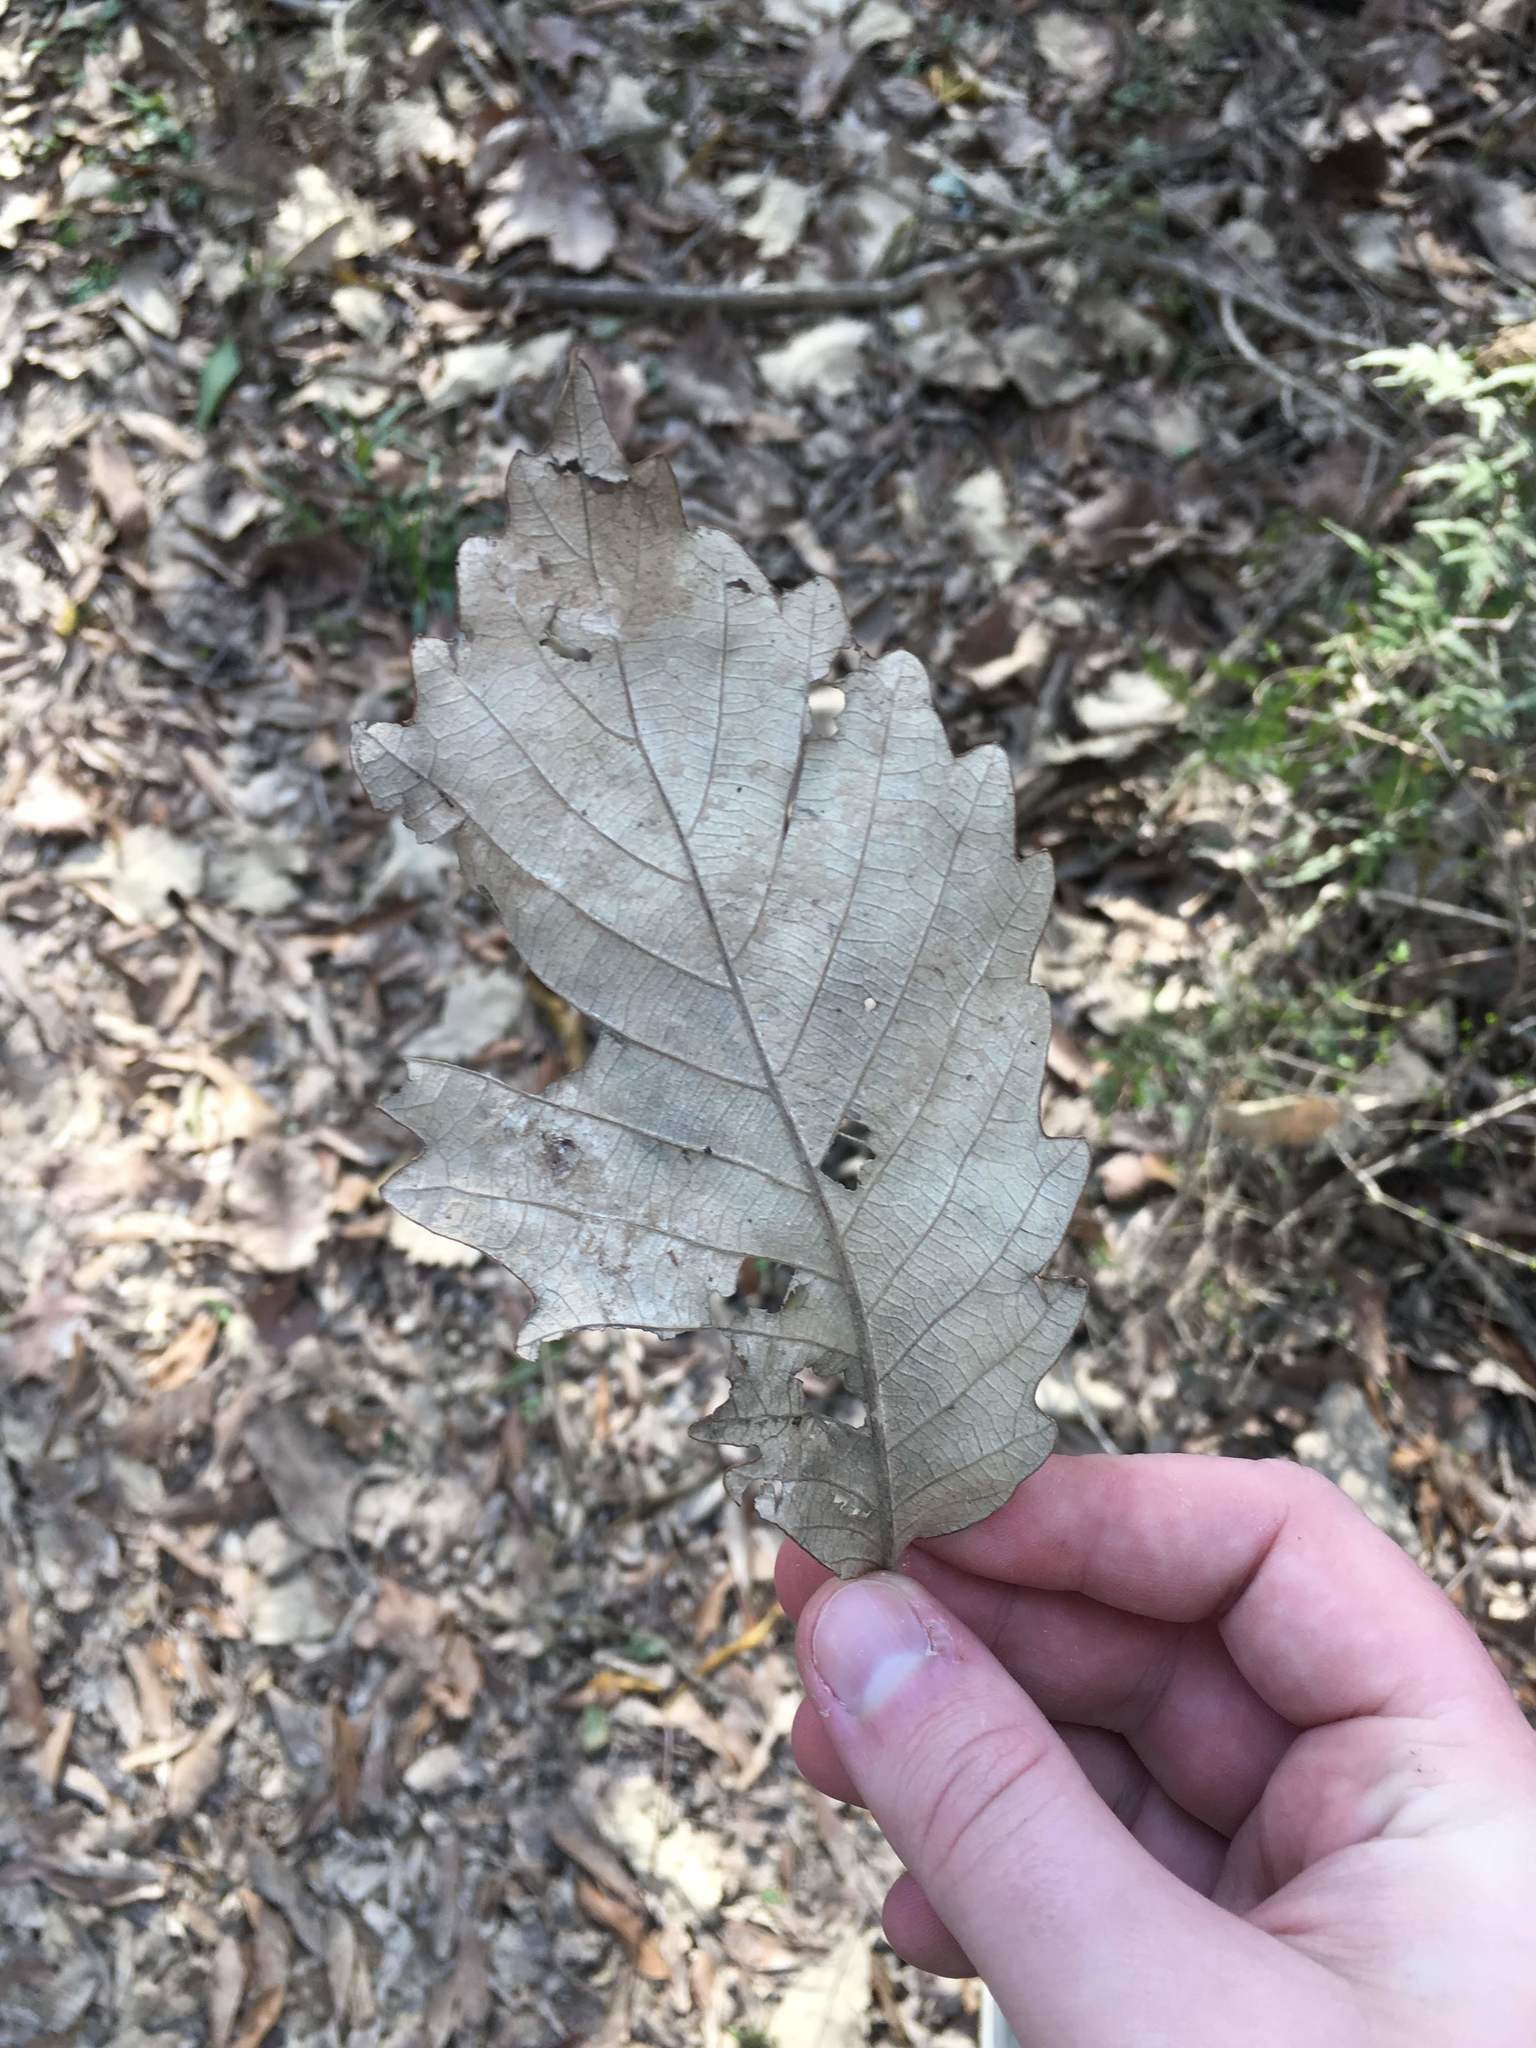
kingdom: Plantae
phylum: Tracheophyta
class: Magnoliopsida
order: Fagales
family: Fagaceae
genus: Quercus
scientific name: Quercus michauxii
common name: Swamp chestnut oak
